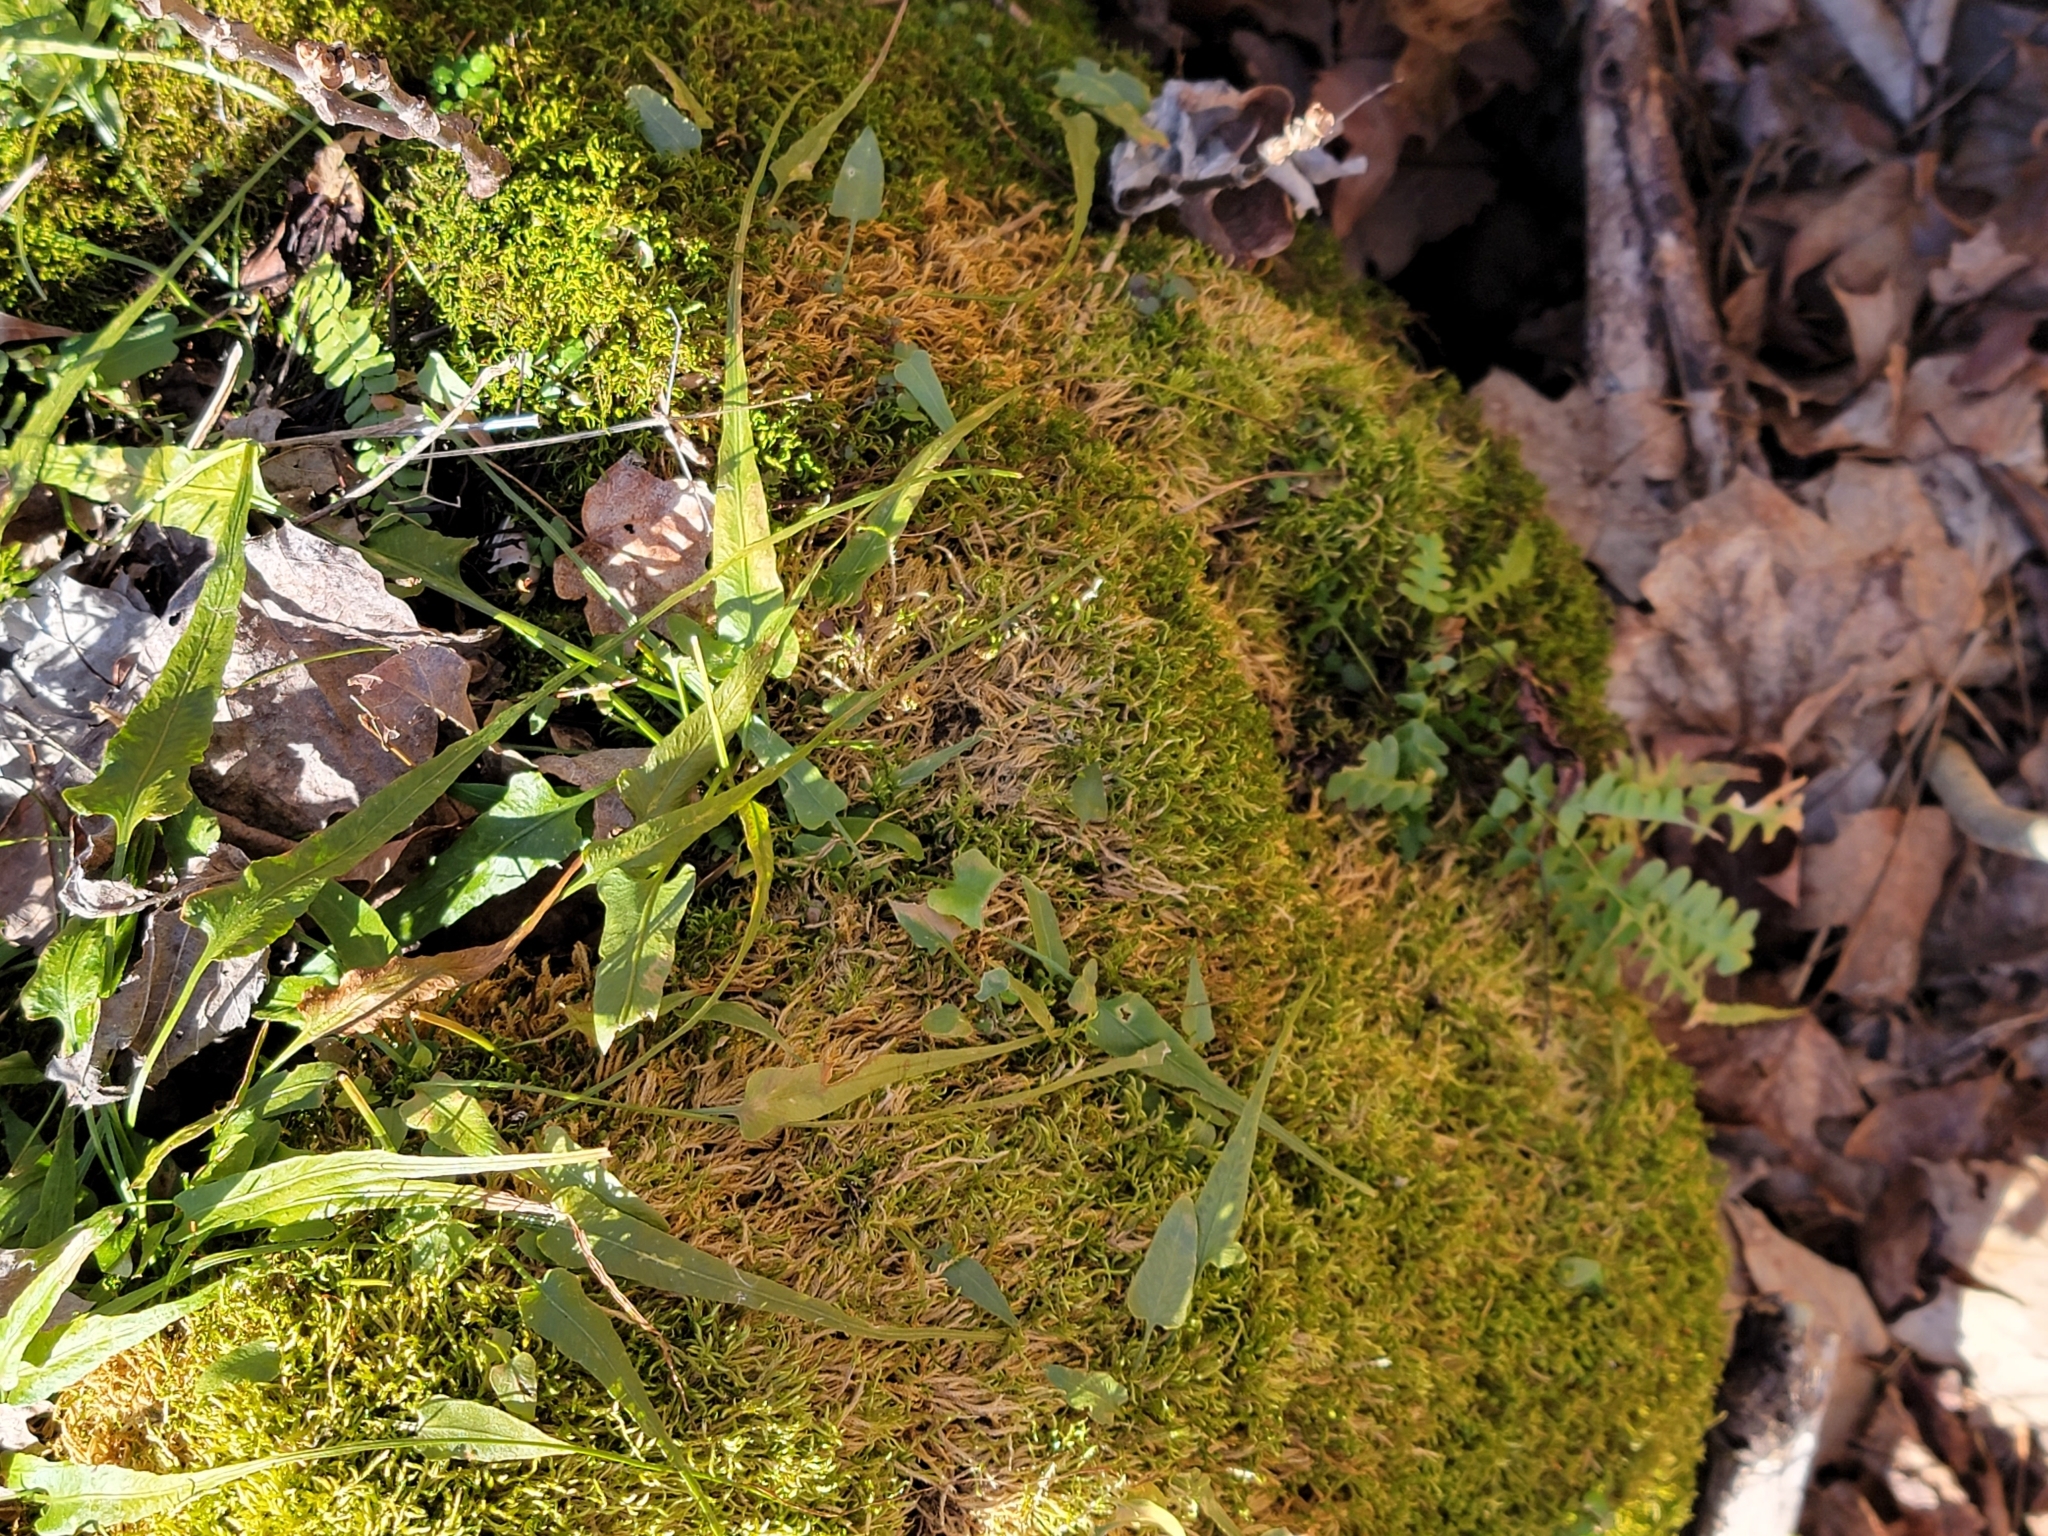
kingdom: Plantae
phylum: Tracheophyta
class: Polypodiopsida
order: Polypodiales
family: Aspleniaceae
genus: Asplenium
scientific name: Asplenium ebenoides
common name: Dragon-tail fern
